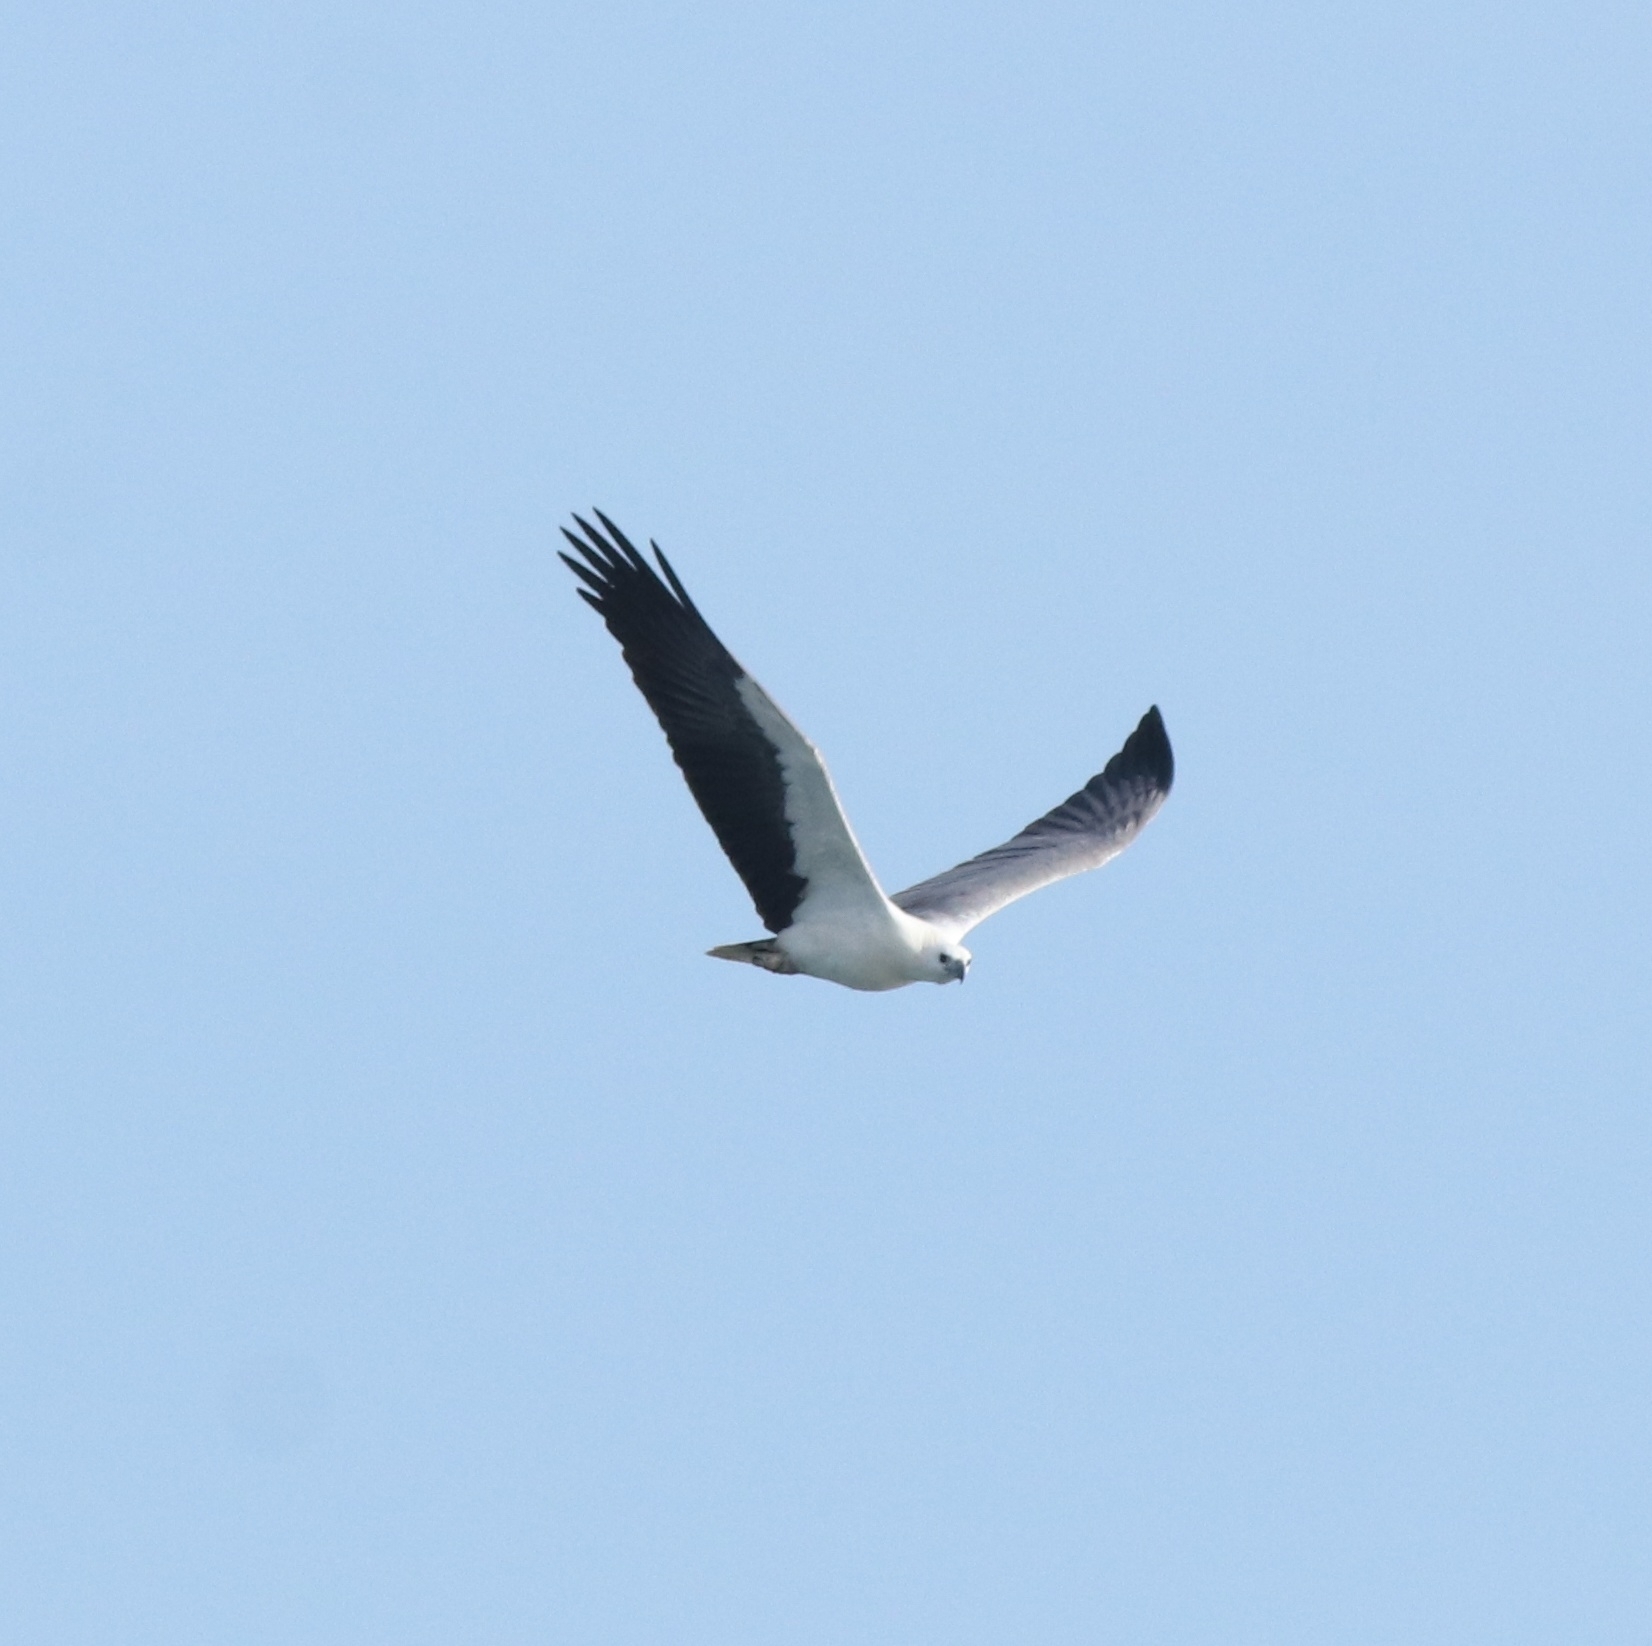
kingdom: Animalia
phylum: Chordata
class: Aves
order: Accipitriformes
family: Accipitridae
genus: Haliaeetus
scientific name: Haliaeetus leucogaster
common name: White-bellied sea eagle
